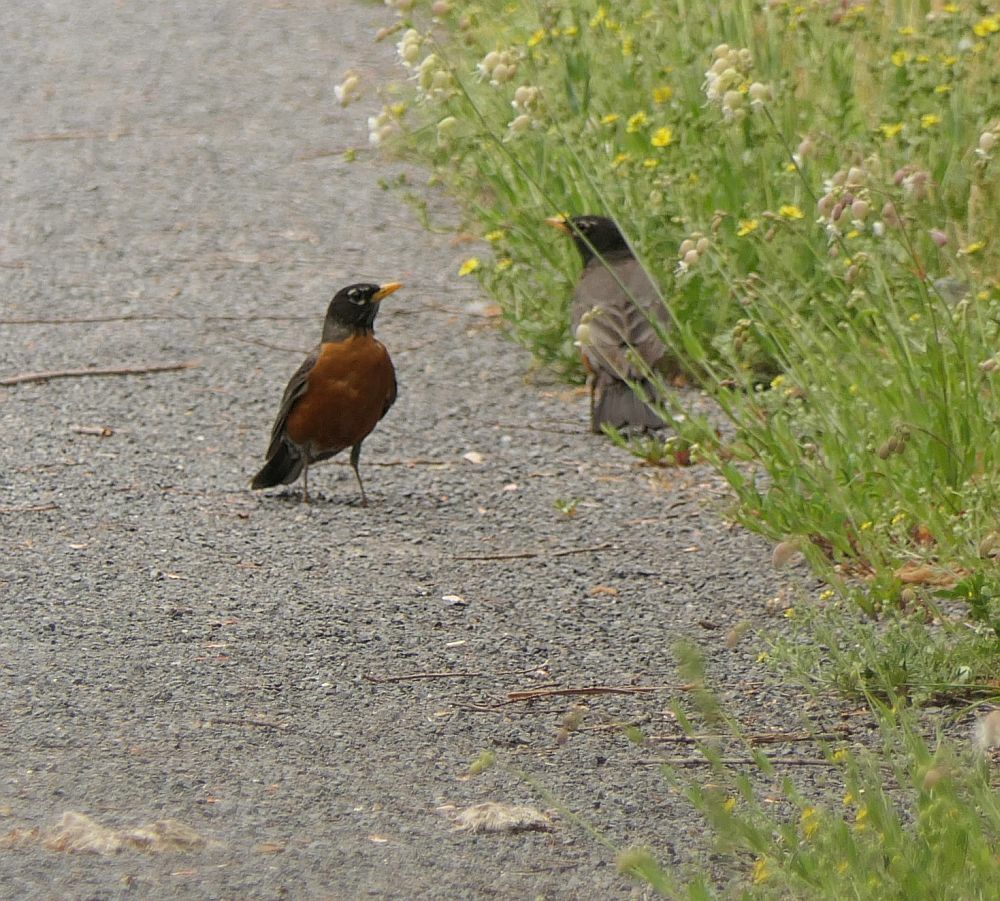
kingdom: Animalia
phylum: Chordata
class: Aves
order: Passeriformes
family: Turdidae
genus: Turdus
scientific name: Turdus migratorius
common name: American robin
